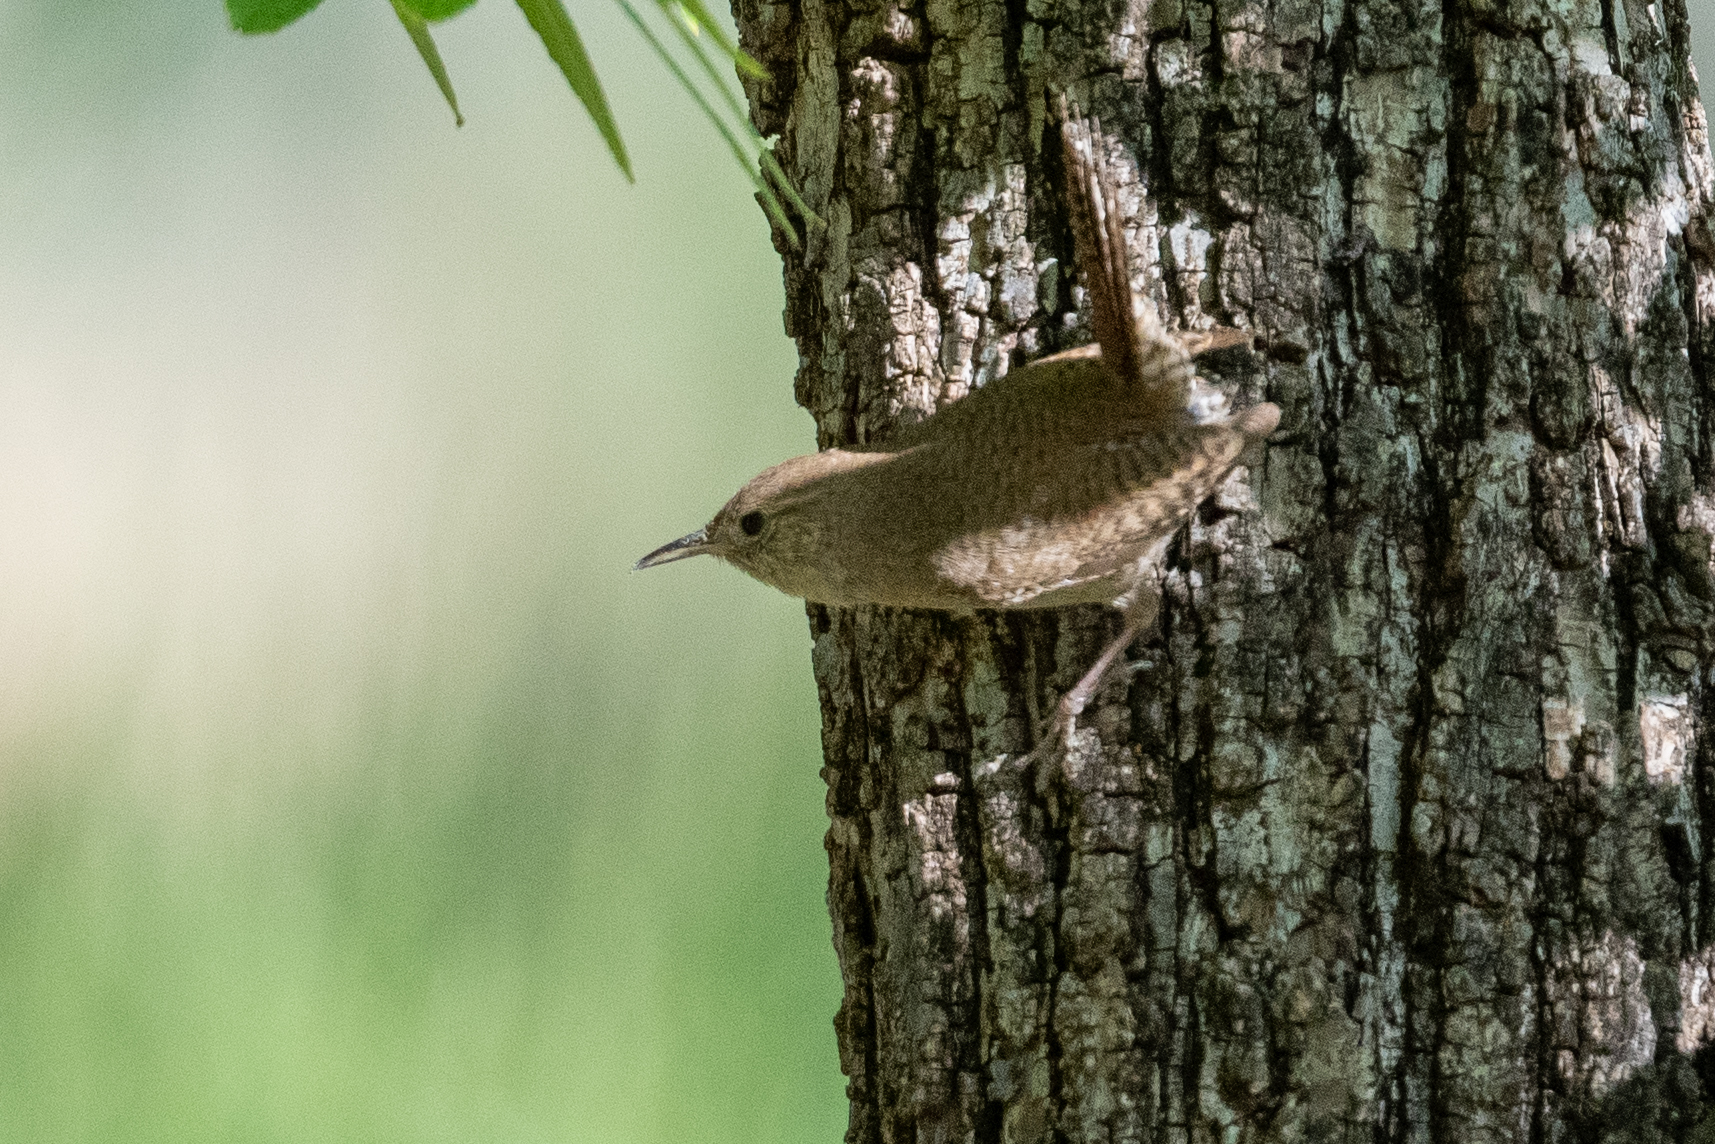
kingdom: Animalia
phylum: Chordata
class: Aves
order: Passeriformes
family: Troglodytidae
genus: Troglodytes
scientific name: Troglodytes aedon
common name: House wren
